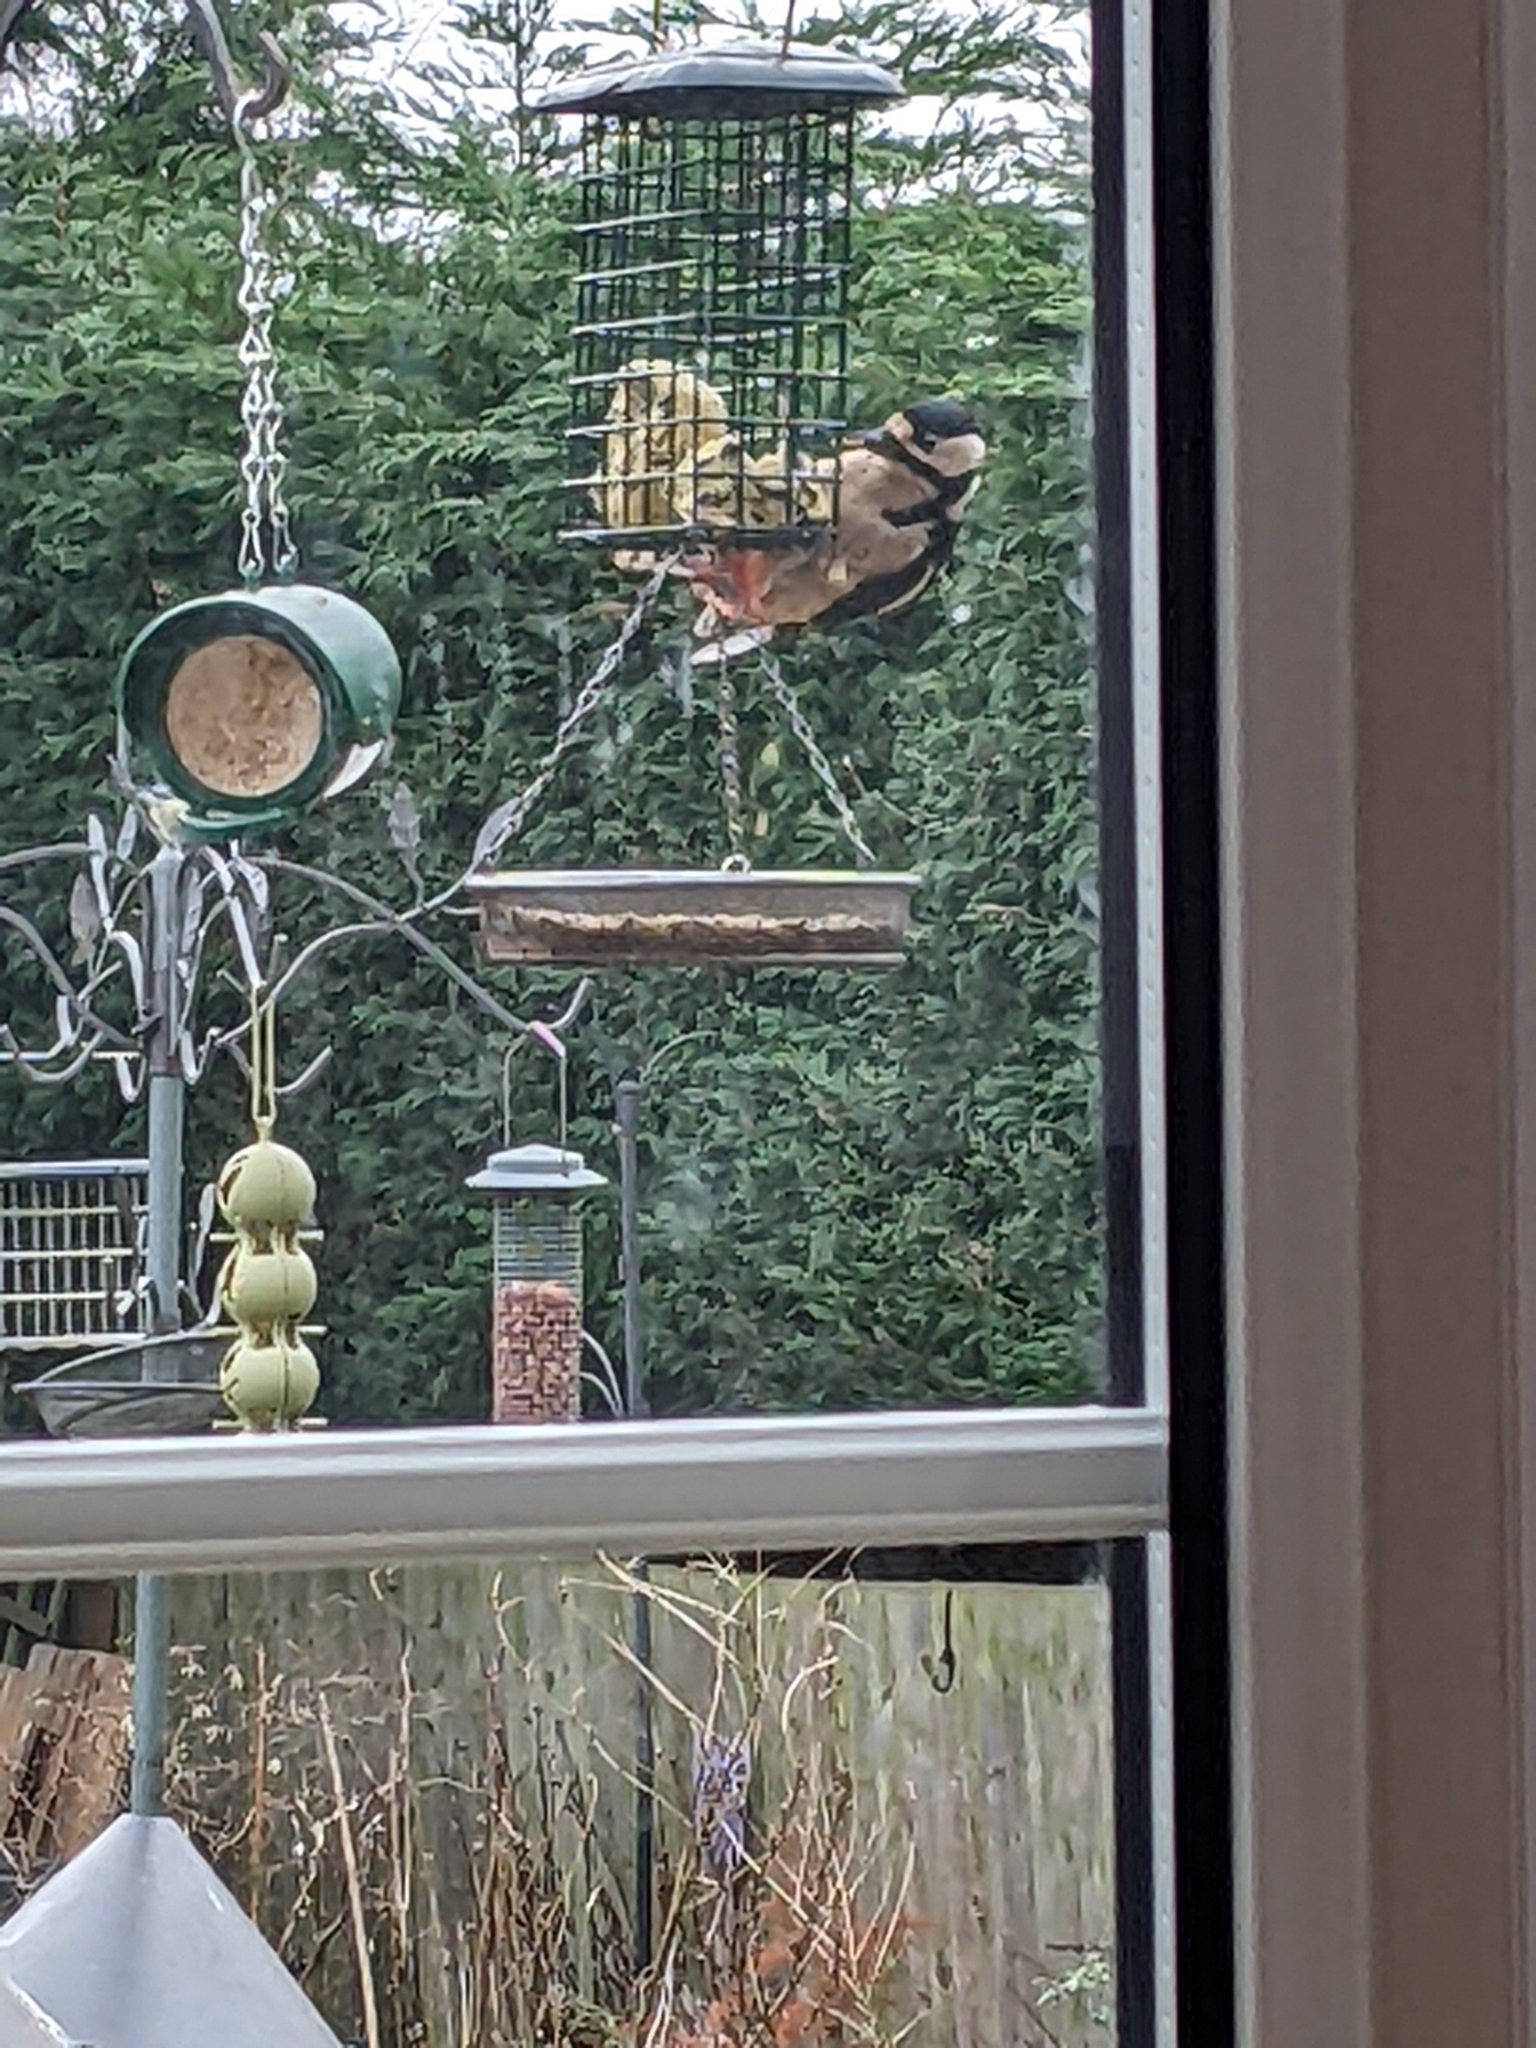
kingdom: Animalia
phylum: Chordata
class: Aves
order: Piciformes
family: Picidae
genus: Dendrocopos
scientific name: Dendrocopos major
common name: Great spotted woodpecker
